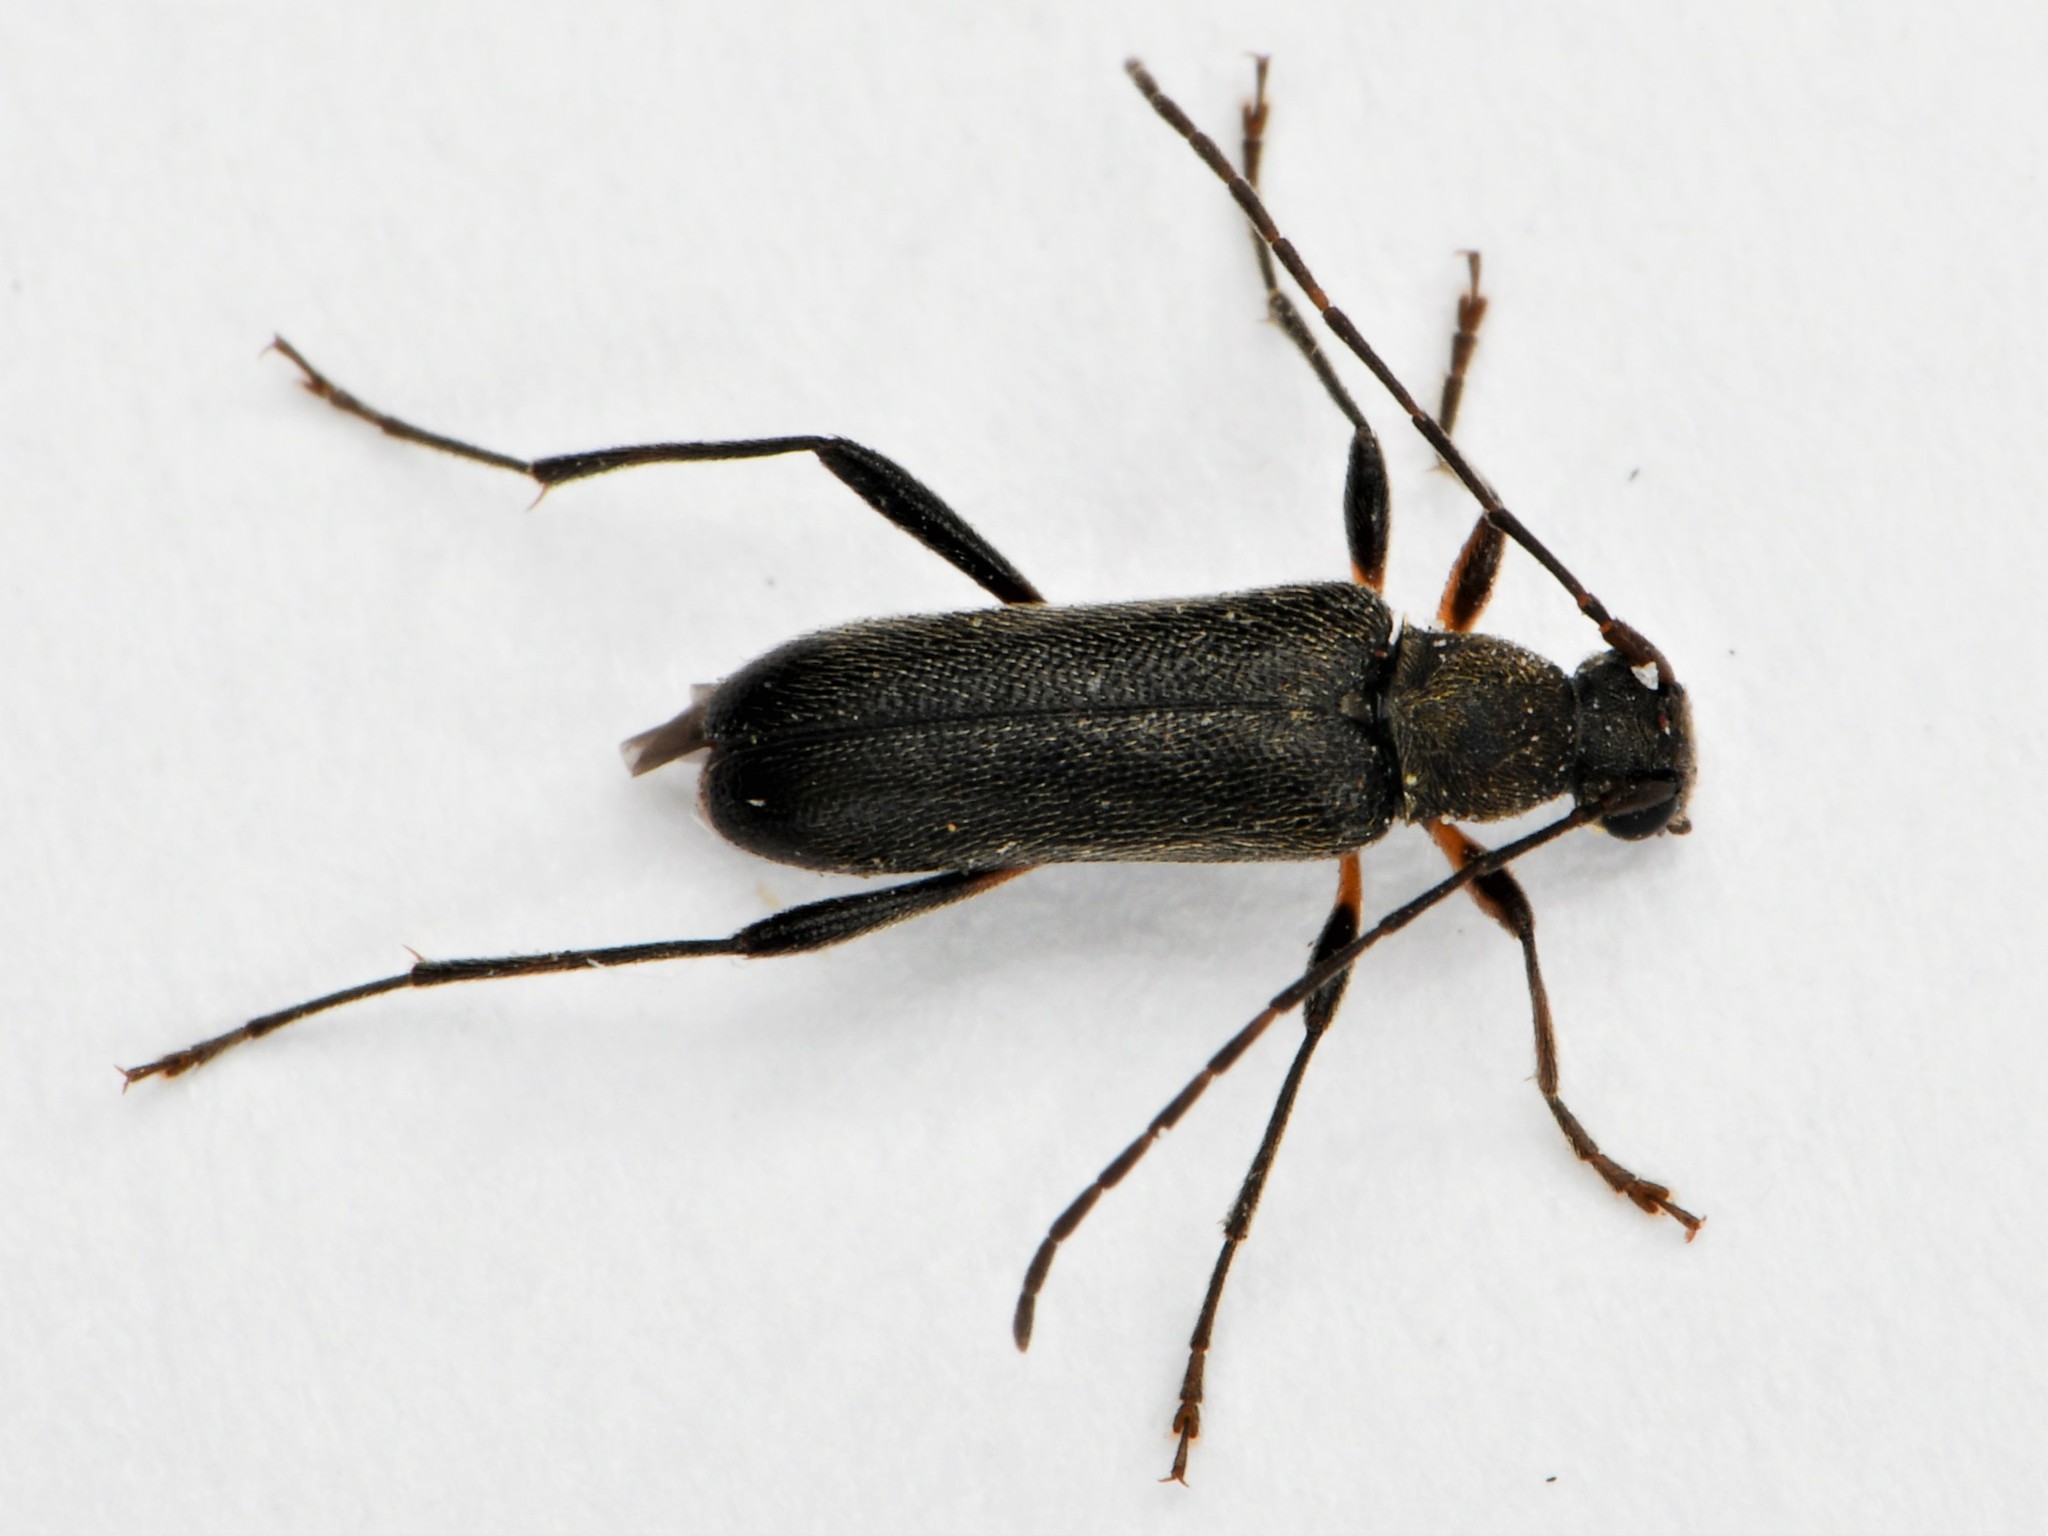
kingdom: Animalia
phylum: Arthropoda
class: Insecta
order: Coleoptera
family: Cerambycidae
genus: Grammoptera
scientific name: Grammoptera ruficornis
